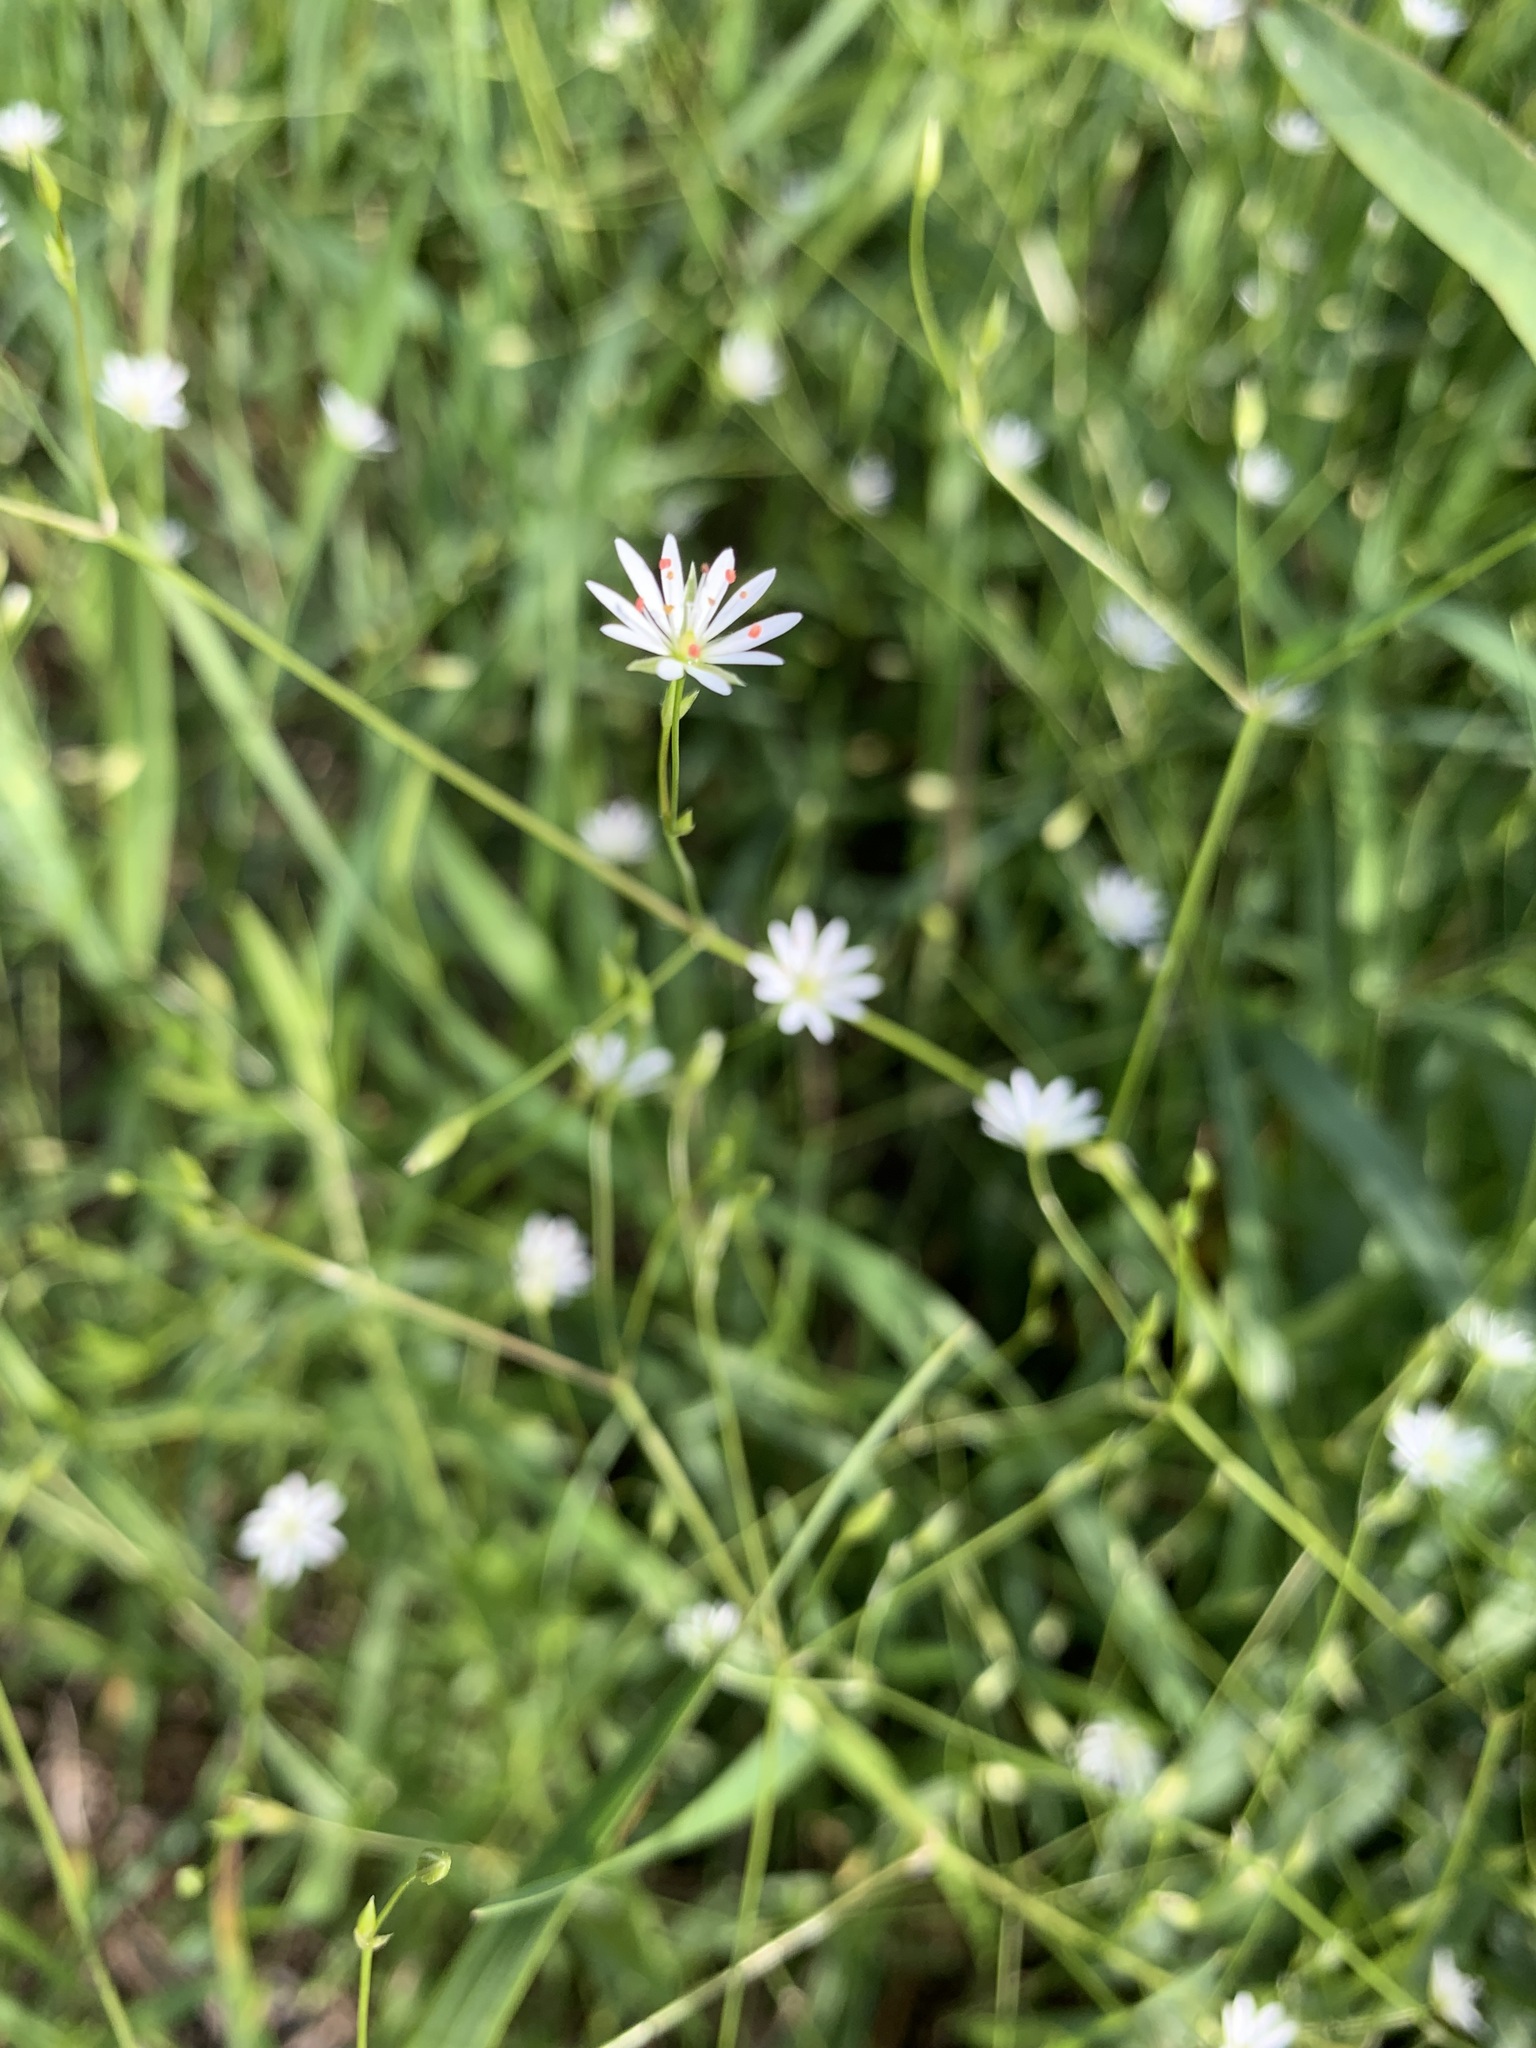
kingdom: Plantae
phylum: Tracheophyta
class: Magnoliopsida
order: Caryophyllales
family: Caryophyllaceae
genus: Stellaria
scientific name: Stellaria graminea
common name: Grass-like starwort
